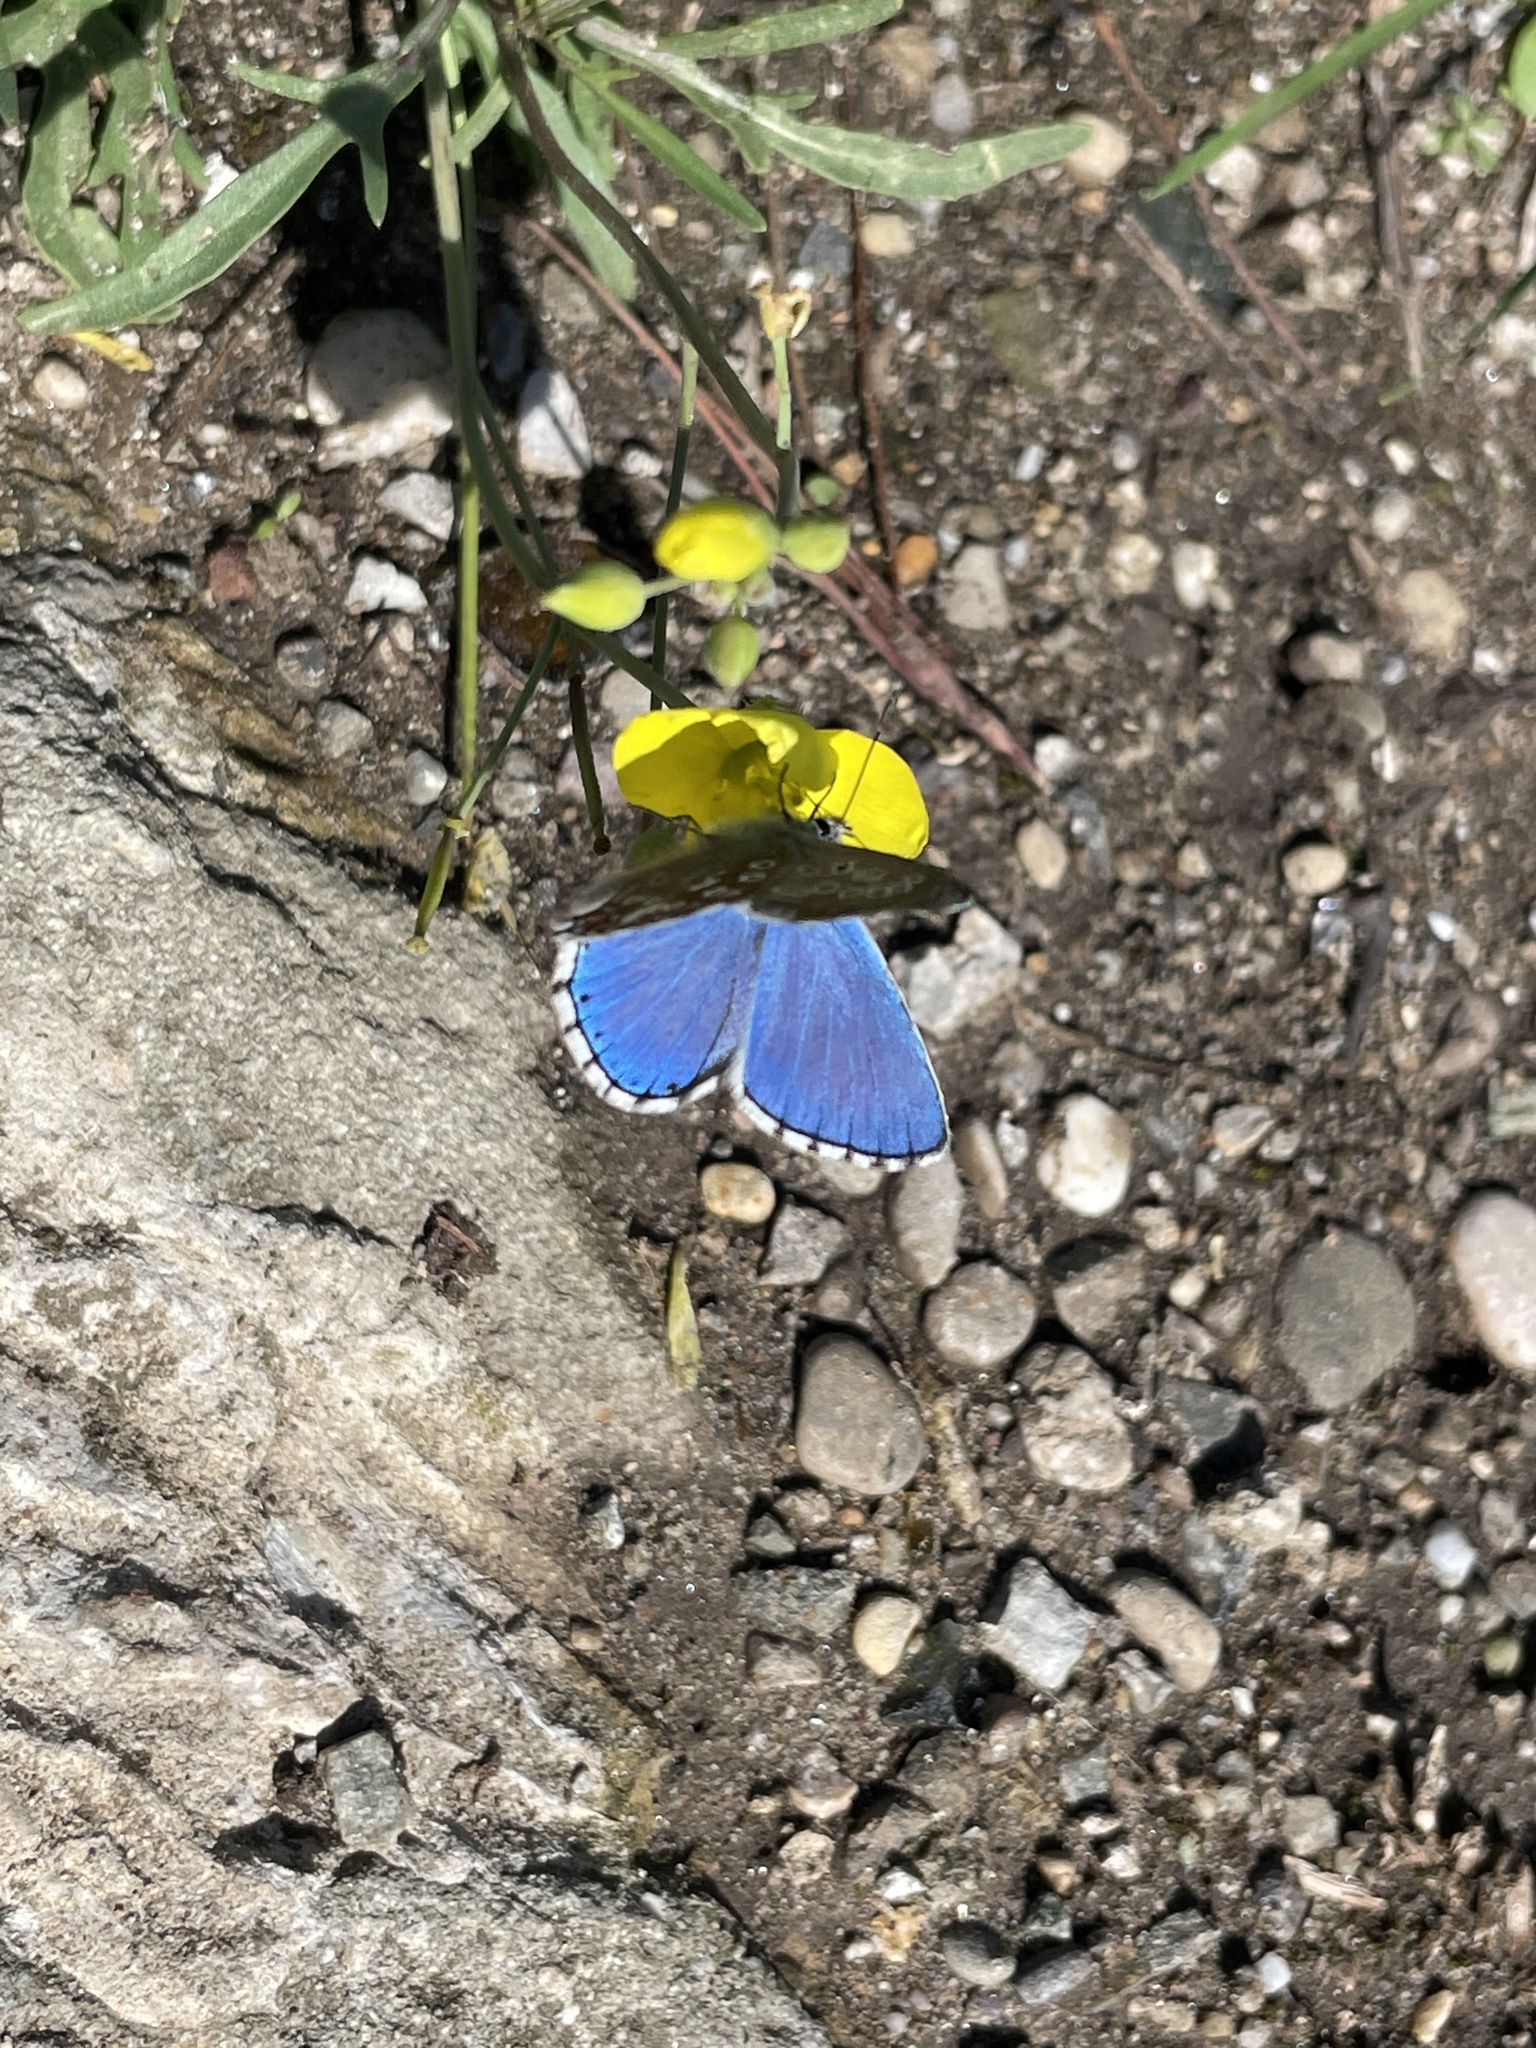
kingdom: Animalia
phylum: Arthropoda
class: Insecta
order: Lepidoptera
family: Lycaenidae
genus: Lysandra
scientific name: Lysandra bellargus
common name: Adonis blue
